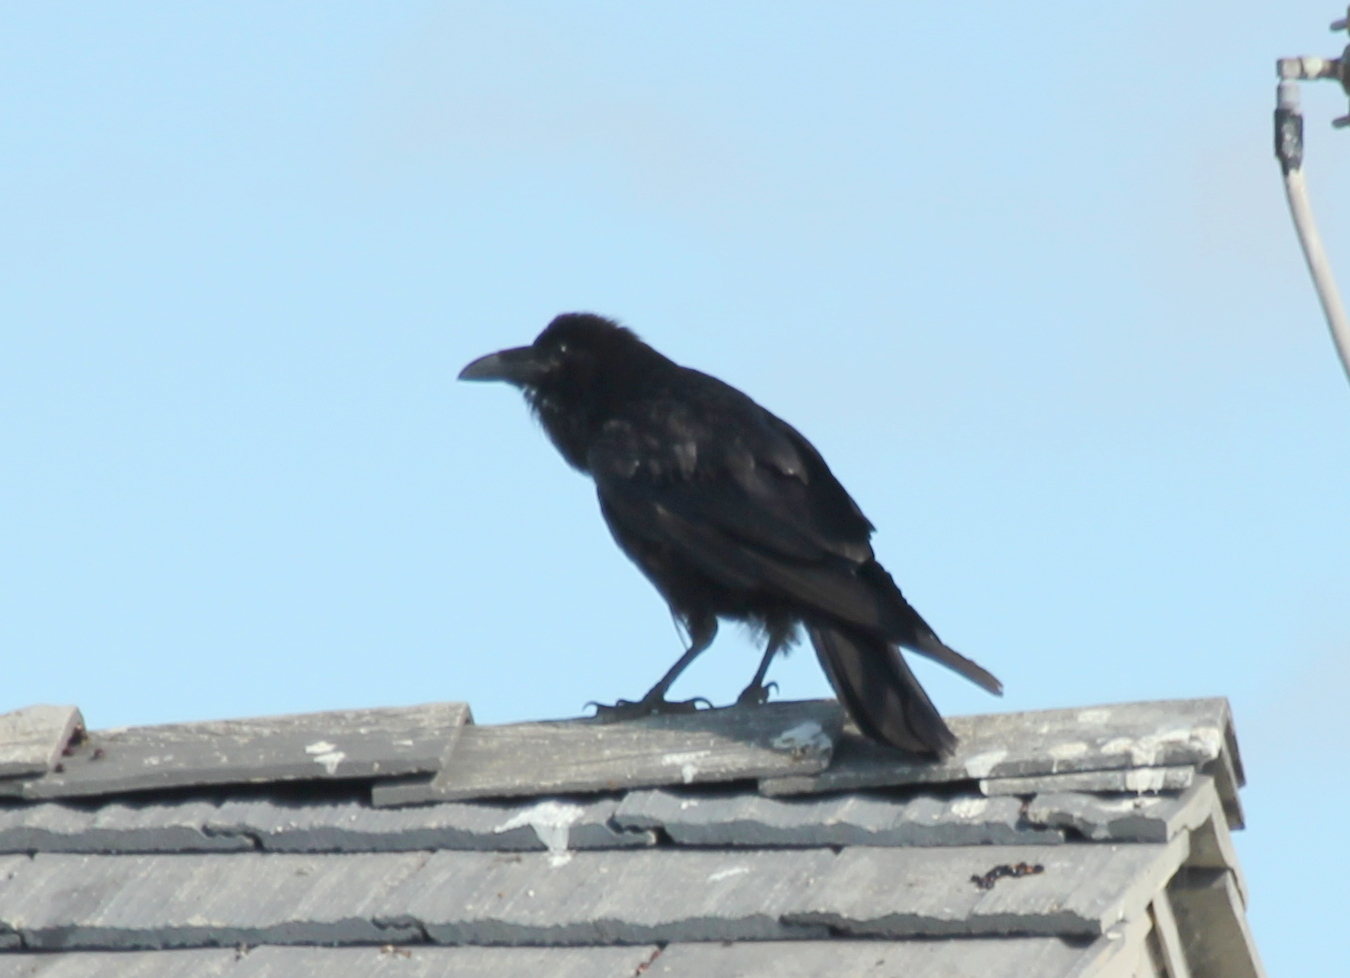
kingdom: Animalia
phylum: Chordata
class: Aves
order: Passeriformes
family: Corvidae
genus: Corvus
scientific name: Corvus corax
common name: Common raven
